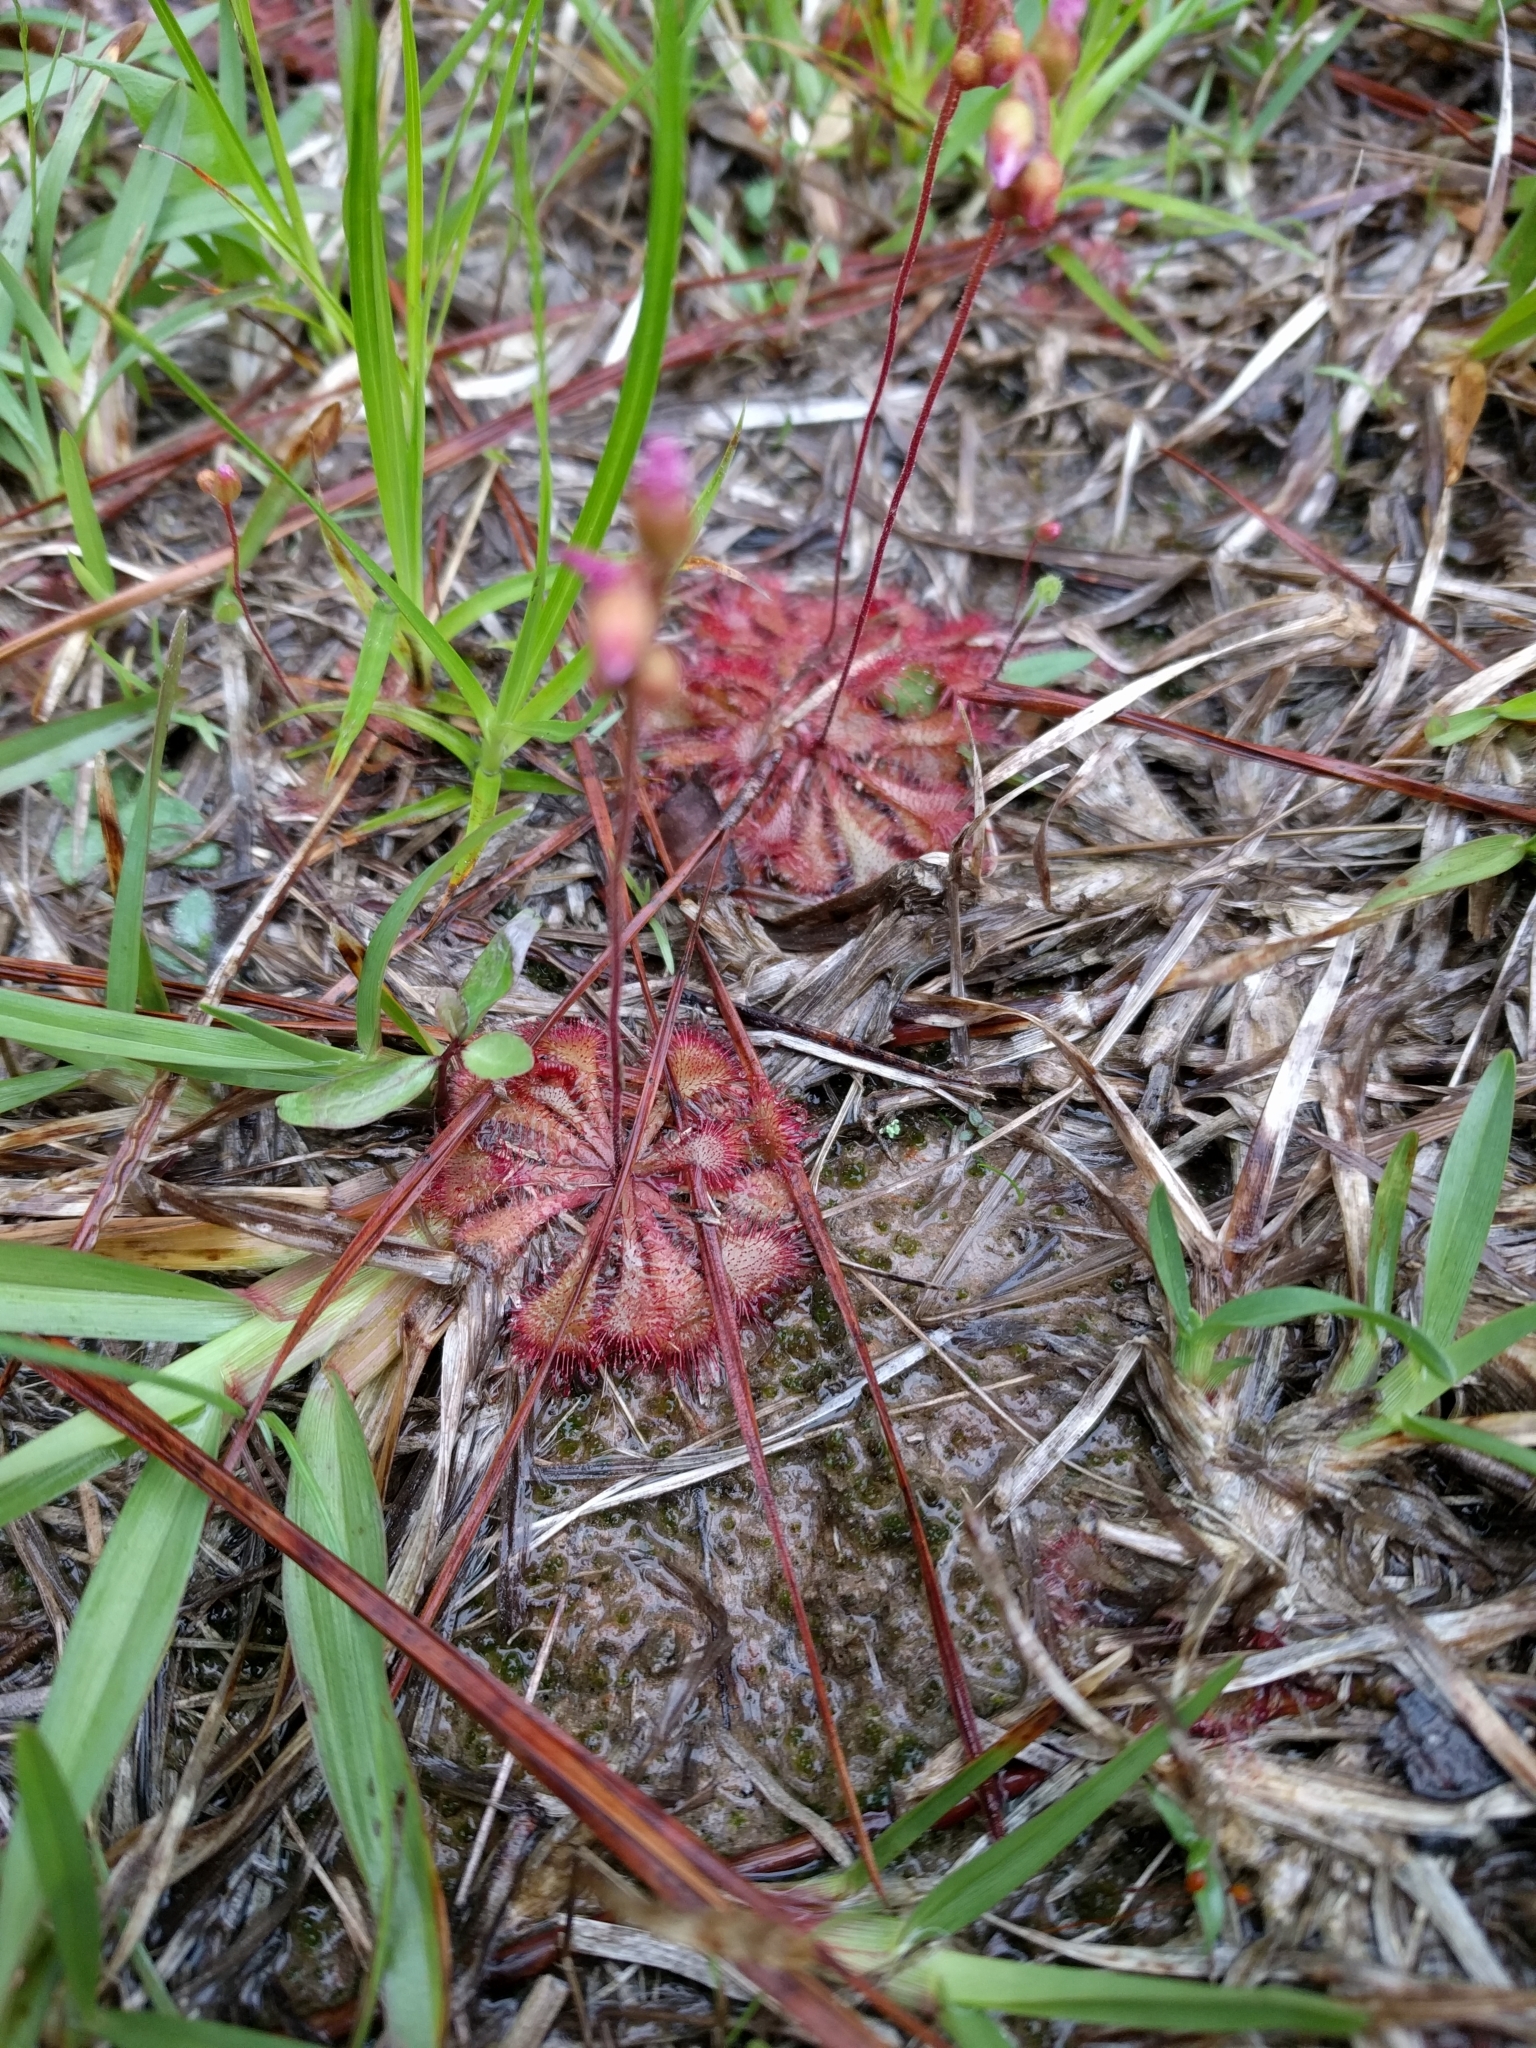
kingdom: Plantae
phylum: Tracheophyta
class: Magnoliopsida
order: Caryophyllales
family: Droseraceae
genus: Drosera
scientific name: Drosera brevifolia
